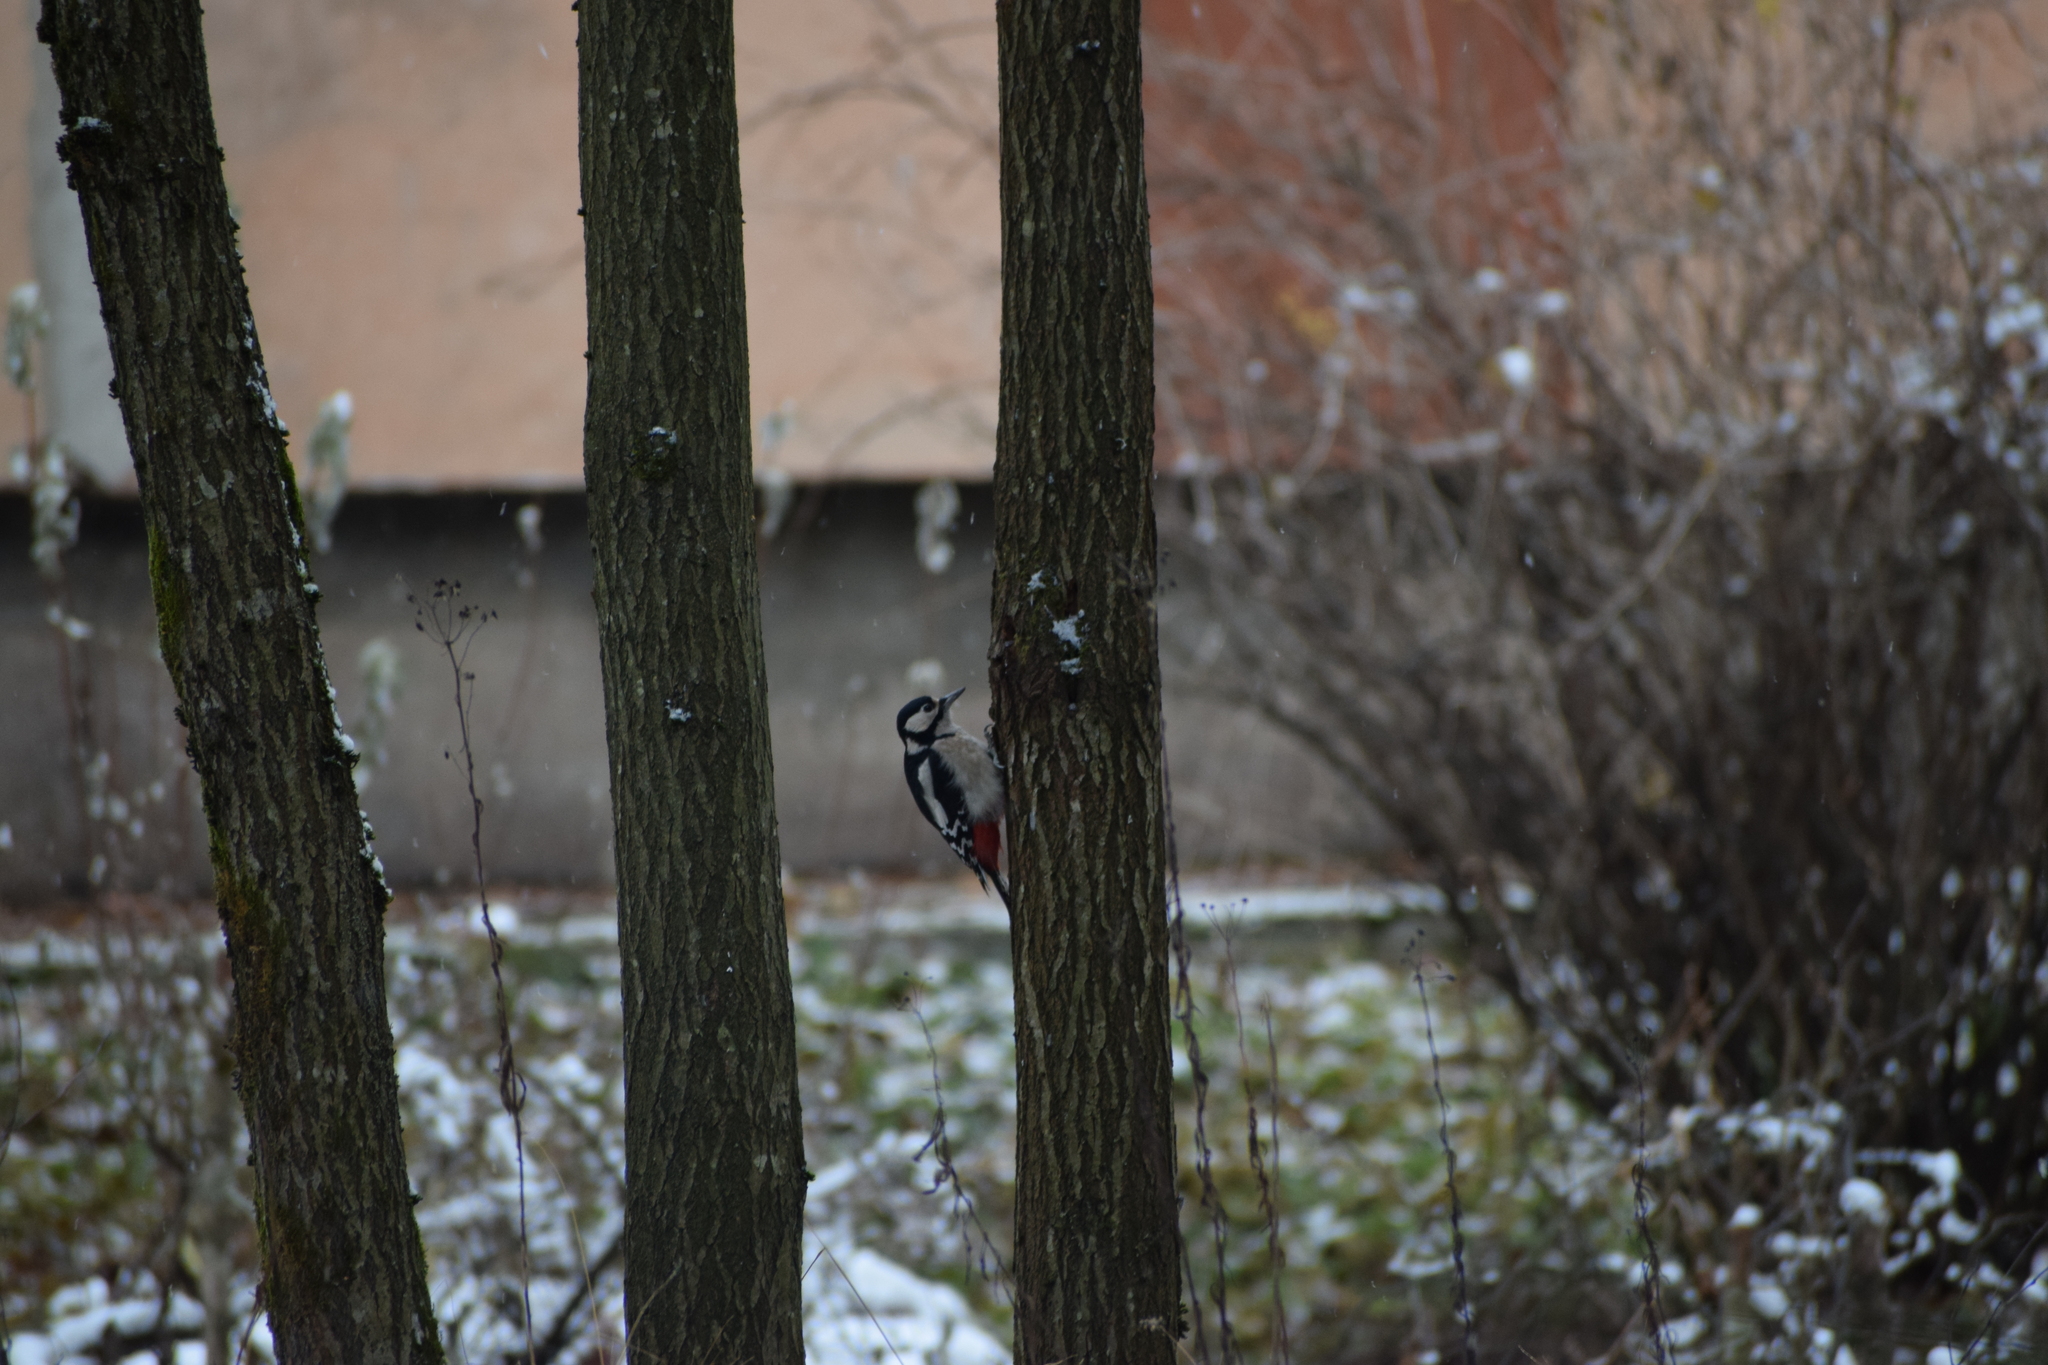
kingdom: Animalia
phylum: Chordata
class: Aves
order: Piciformes
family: Picidae
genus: Dendrocopos
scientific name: Dendrocopos major
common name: Great spotted woodpecker
